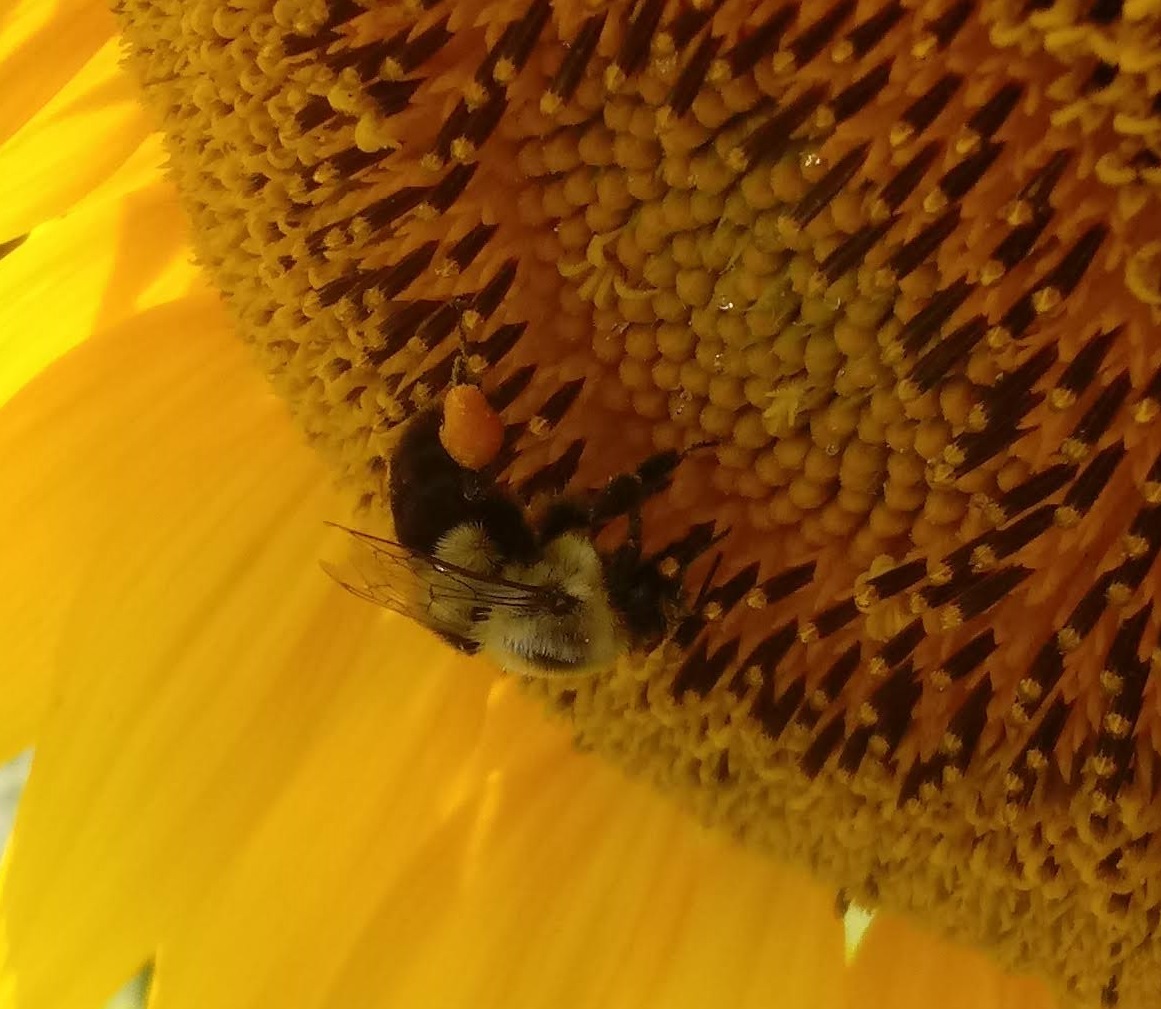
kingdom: Animalia
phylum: Arthropoda
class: Insecta
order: Hymenoptera
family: Apidae
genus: Bombus
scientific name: Bombus impatiens
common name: Common eastern bumble bee
